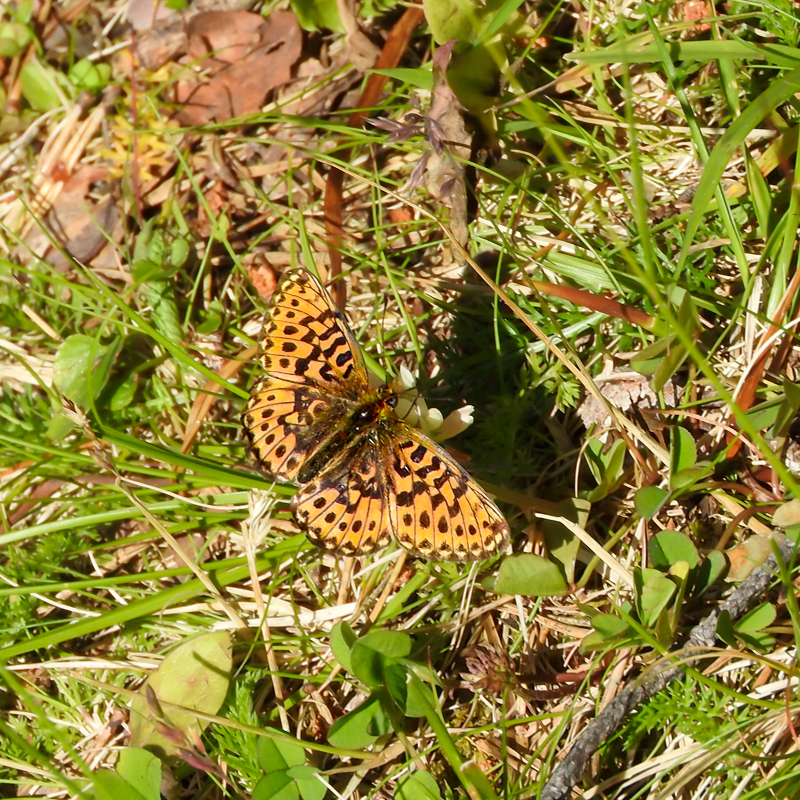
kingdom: Animalia
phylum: Arthropoda
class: Insecta
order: Lepidoptera
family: Nymphalidae
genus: Clossiana
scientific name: Clossiana euphrosyne
